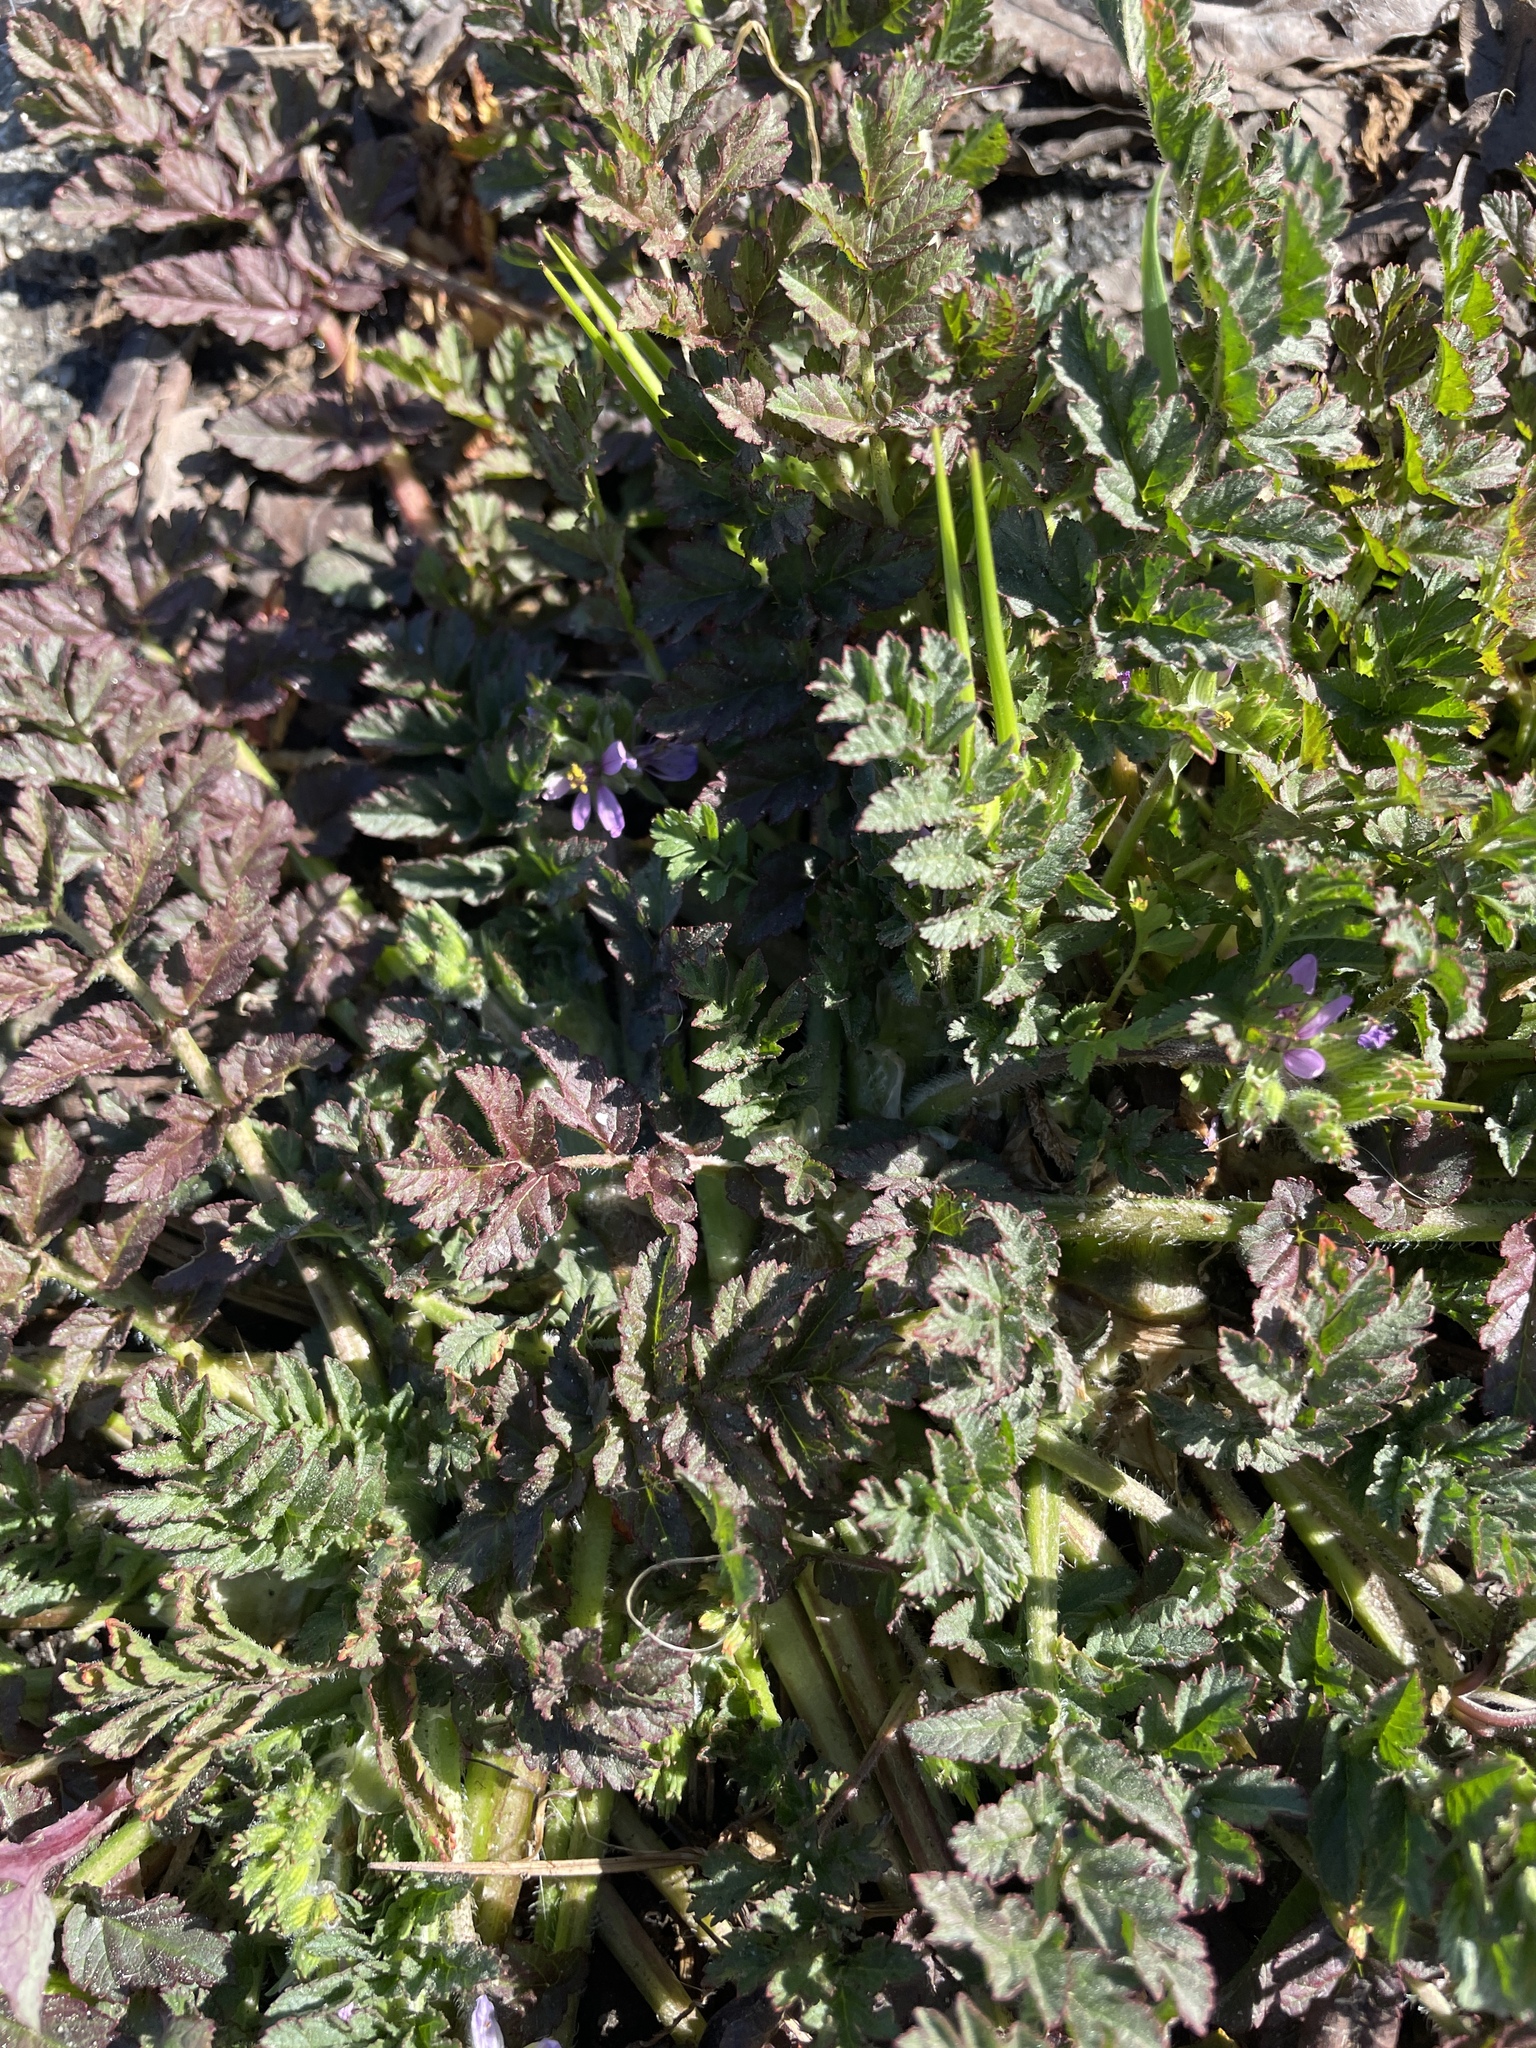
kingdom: Plantae
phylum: Tracheophyta
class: Magnoliopsida
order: Geraniales
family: Geraniaceae
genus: Erodium
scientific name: Erodium moschatum
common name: Musk stork's-bill
